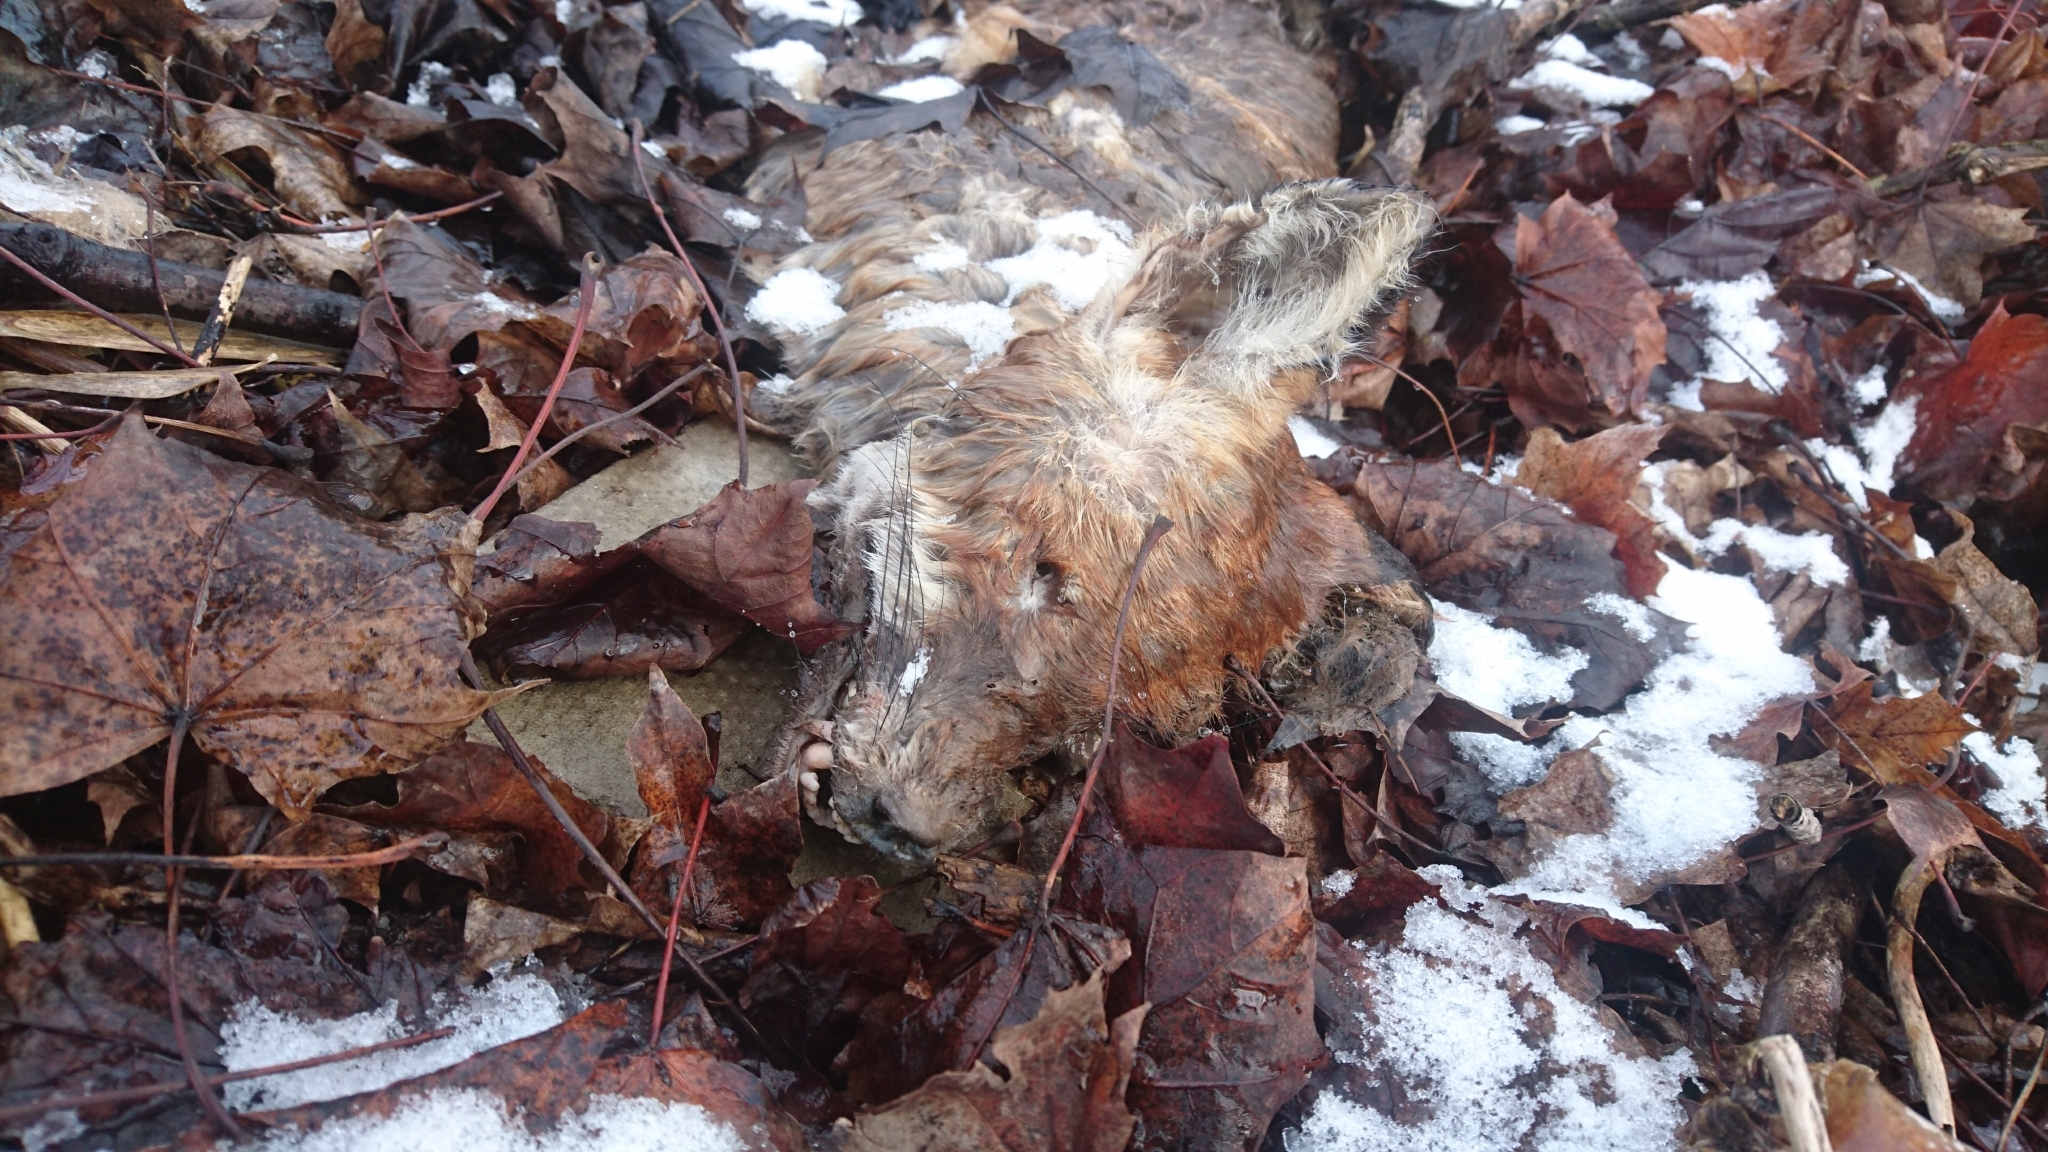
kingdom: Animalia
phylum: Chordata
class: Mammalia
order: Carnivora
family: Canidae
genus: Vulpes
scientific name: Vulpes vulpes
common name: Red fox
